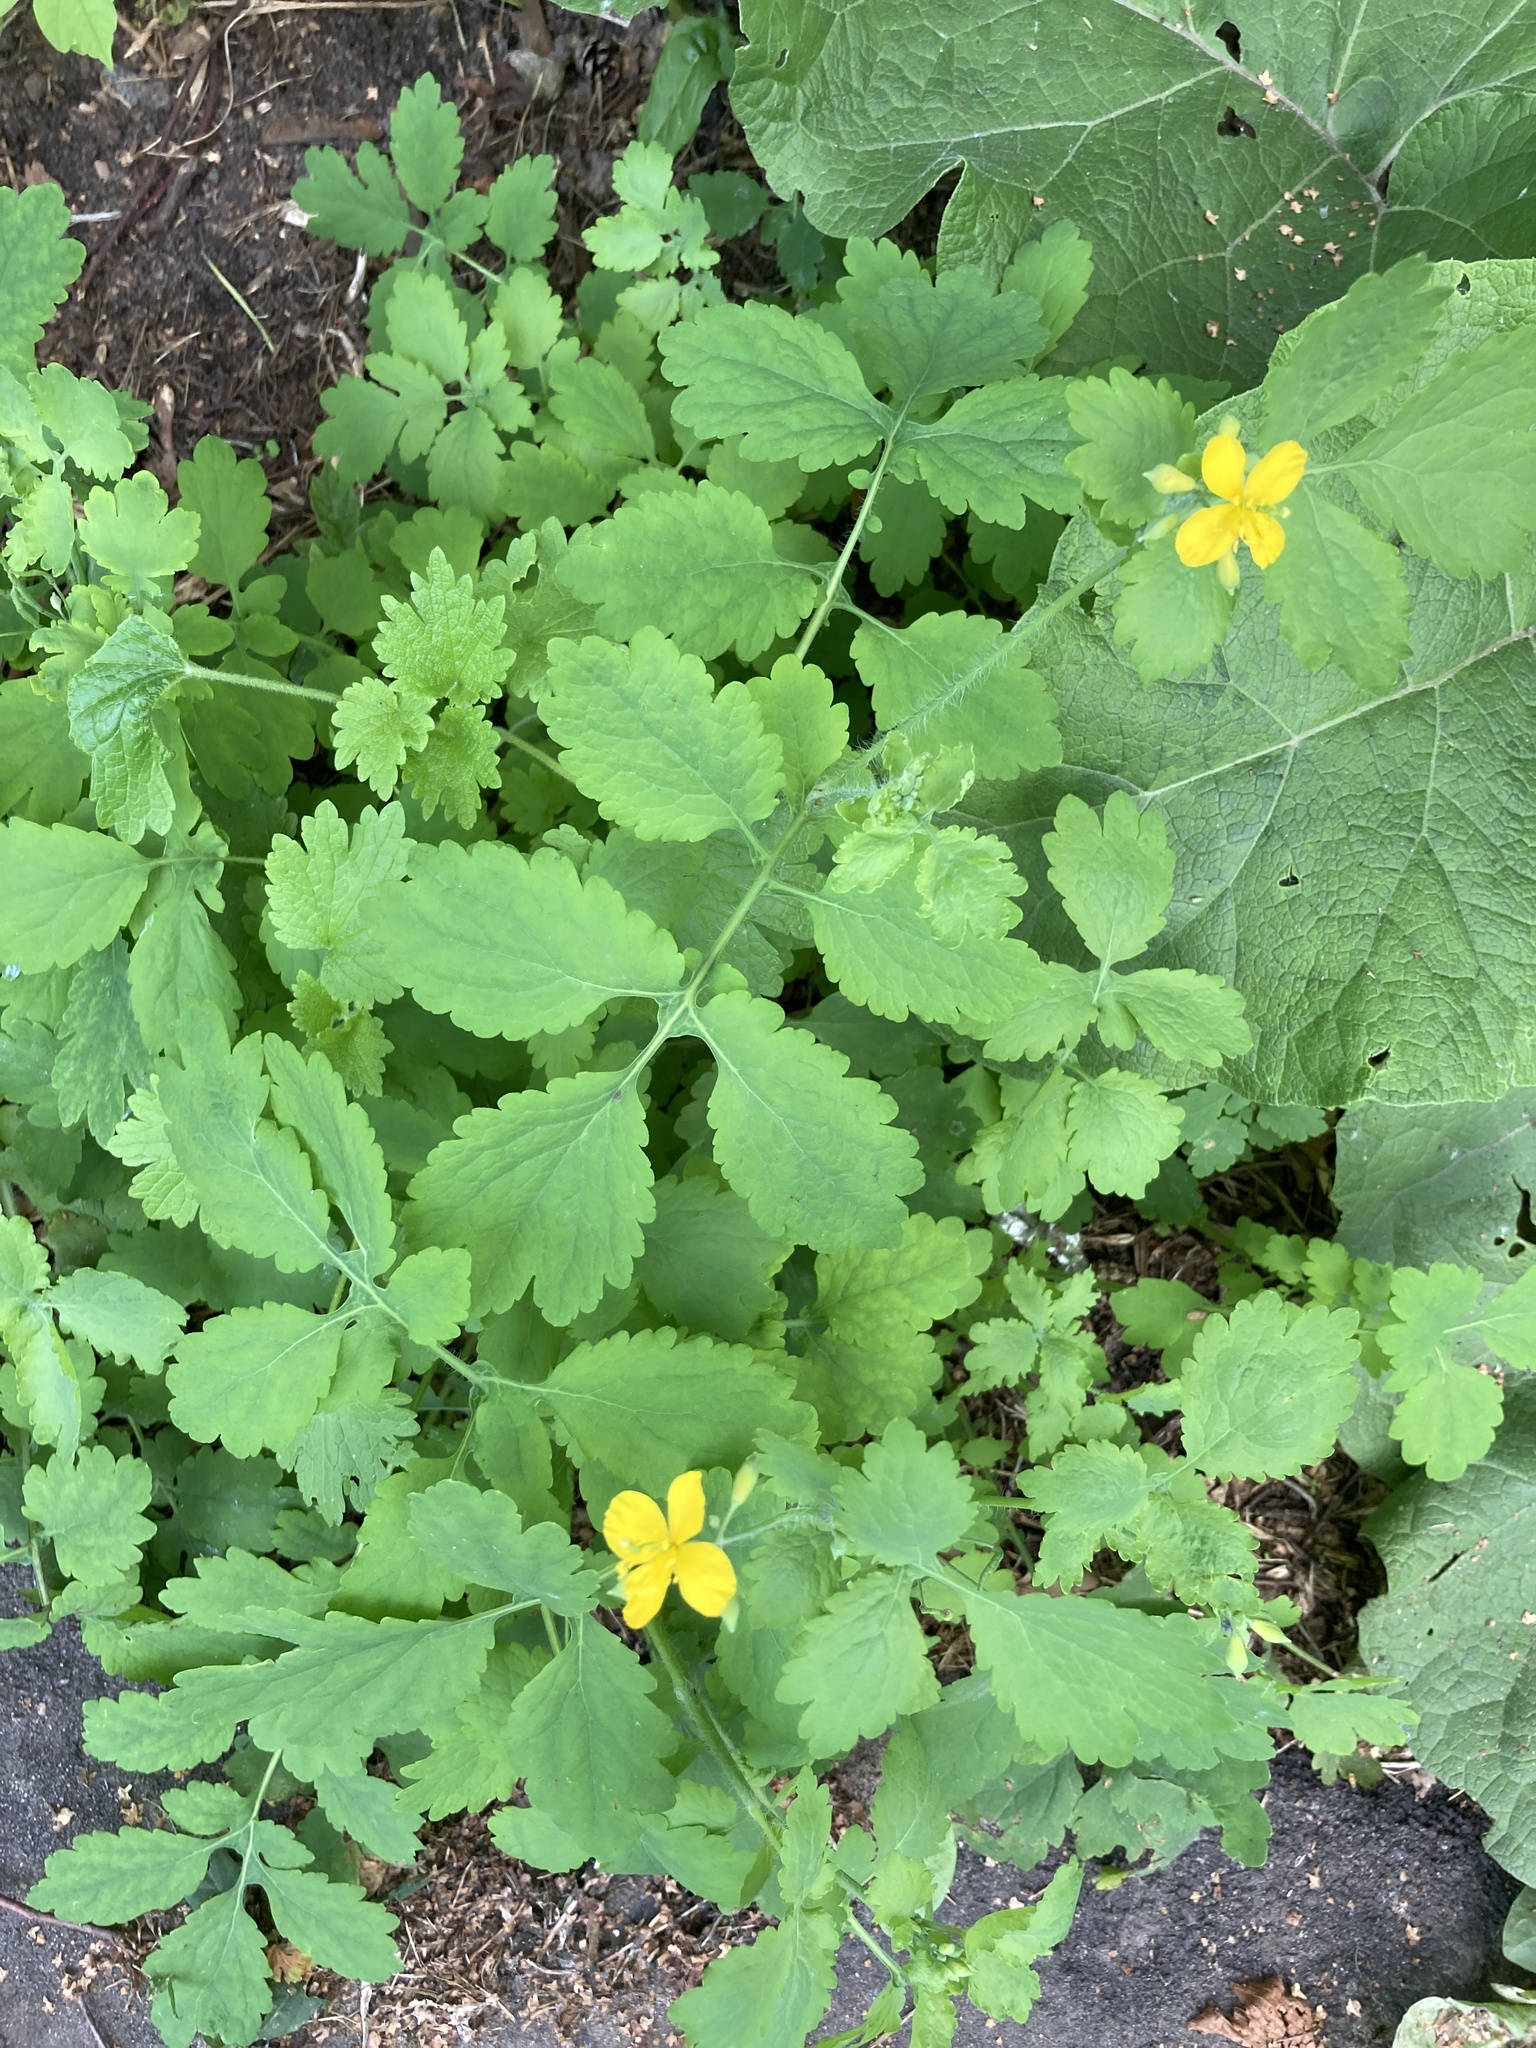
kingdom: Plantae
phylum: Tracheophyta
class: Magnoliopsida
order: Ranunculales
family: Papaveraceae
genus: Chelidonium
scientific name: Chelidonium majus
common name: Greater celandine
